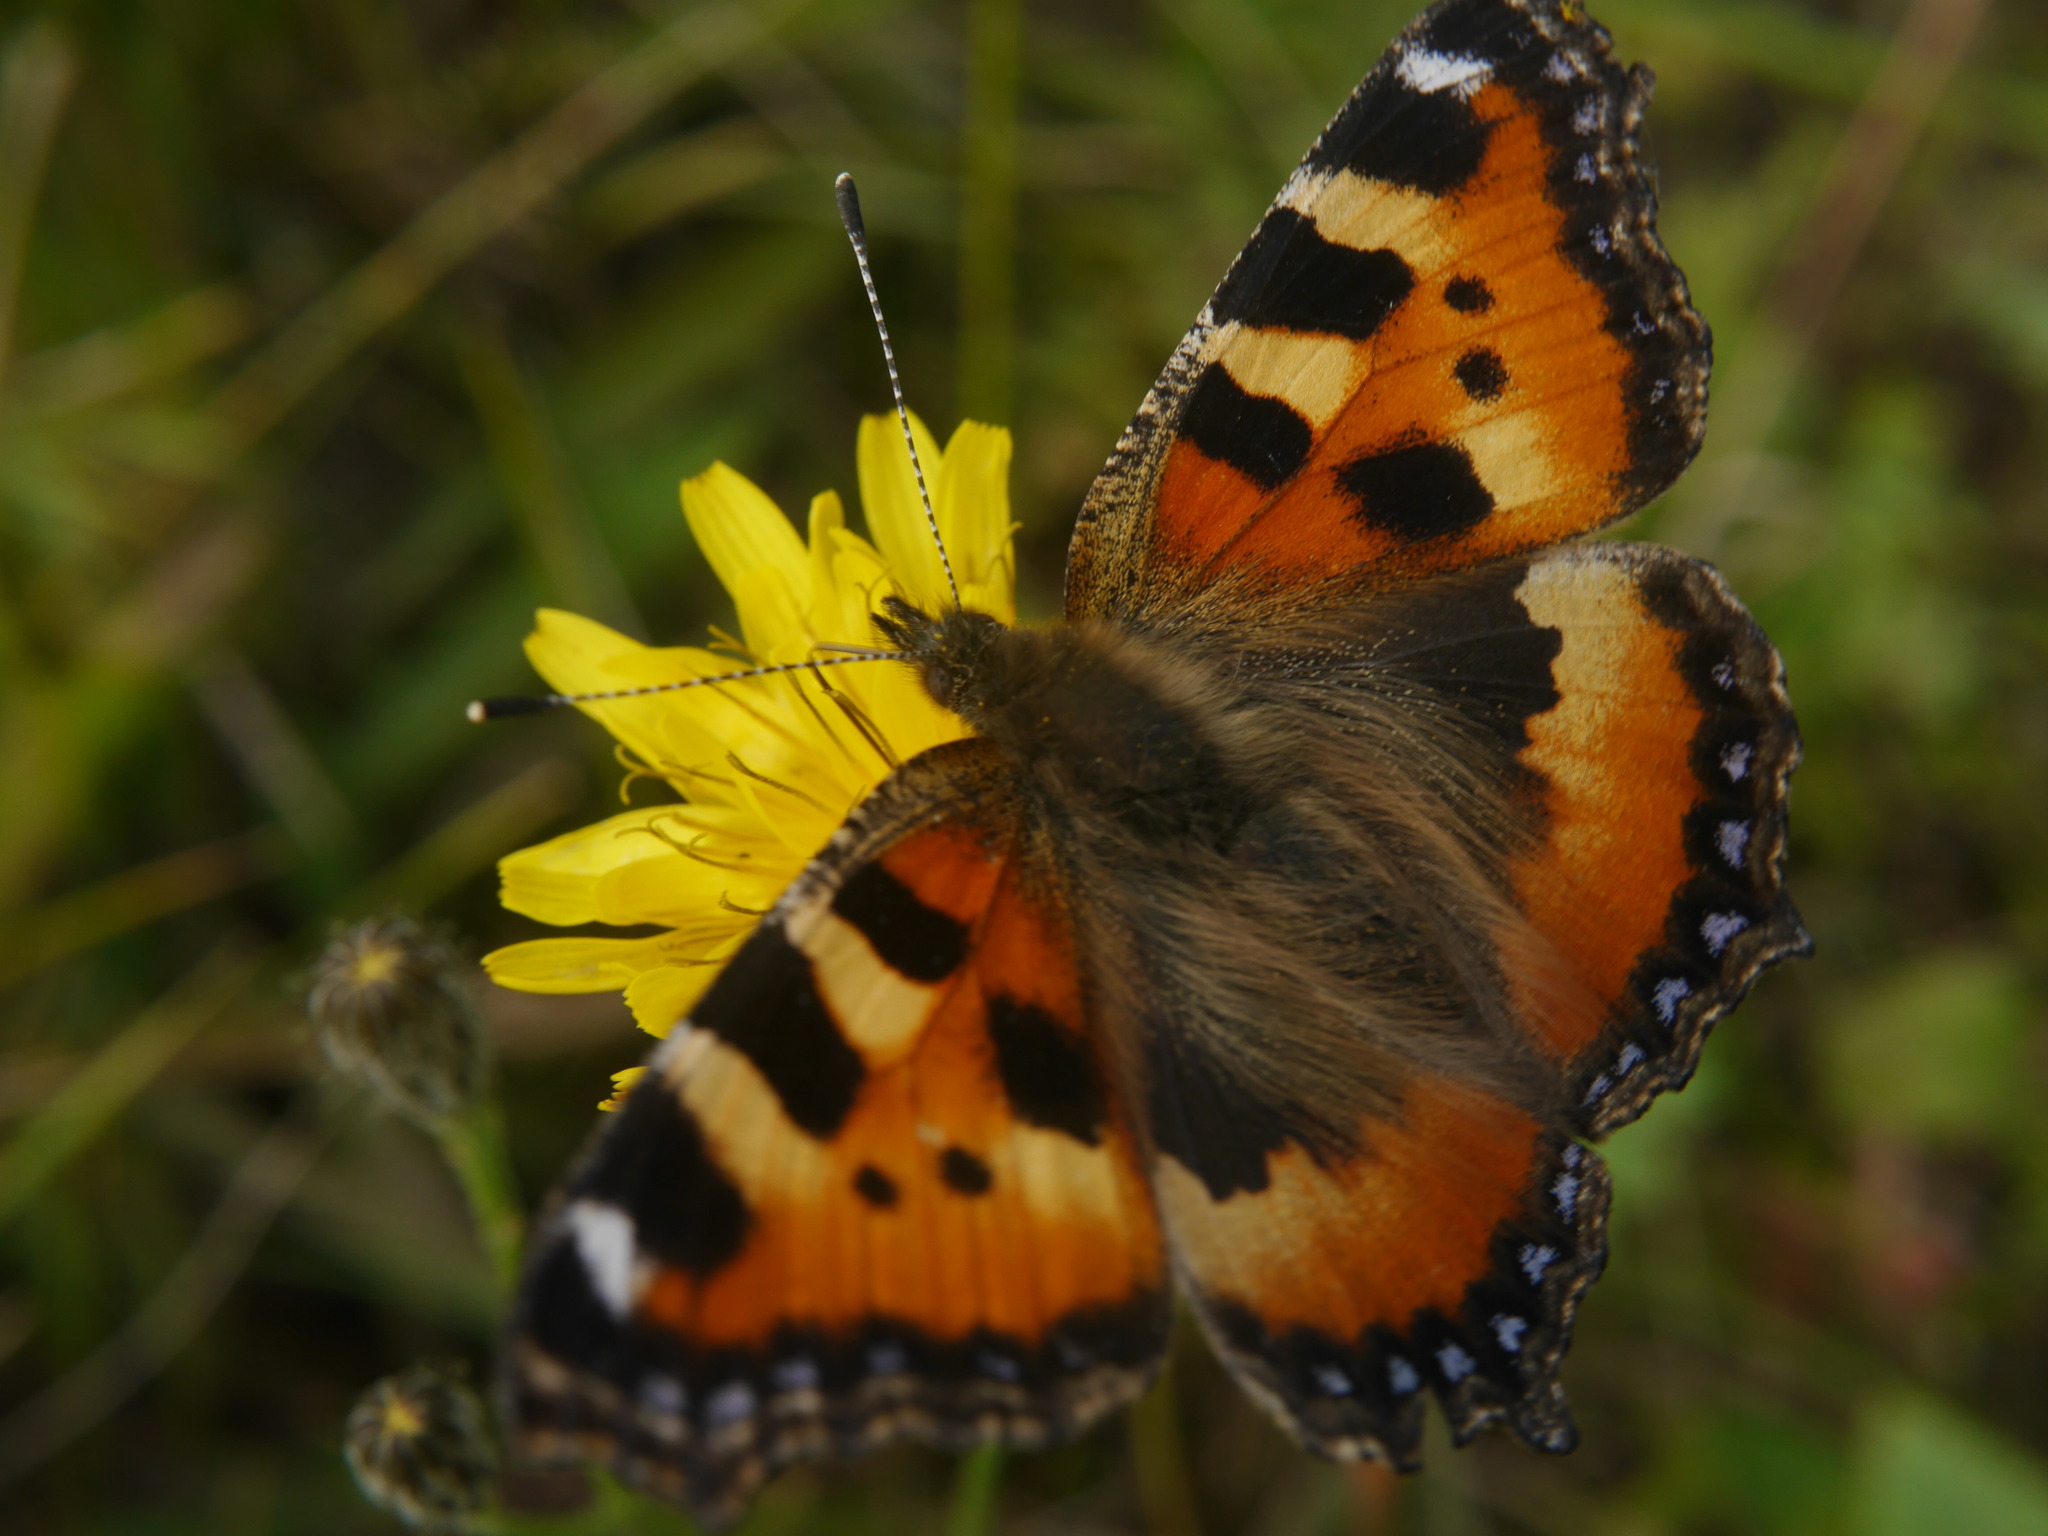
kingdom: Animalia
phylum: Arthropoda
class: Insecta
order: Lepidoptera
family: Nymphalidae
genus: Aglais
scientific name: Aglais urticae
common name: Small tortoiseshell
